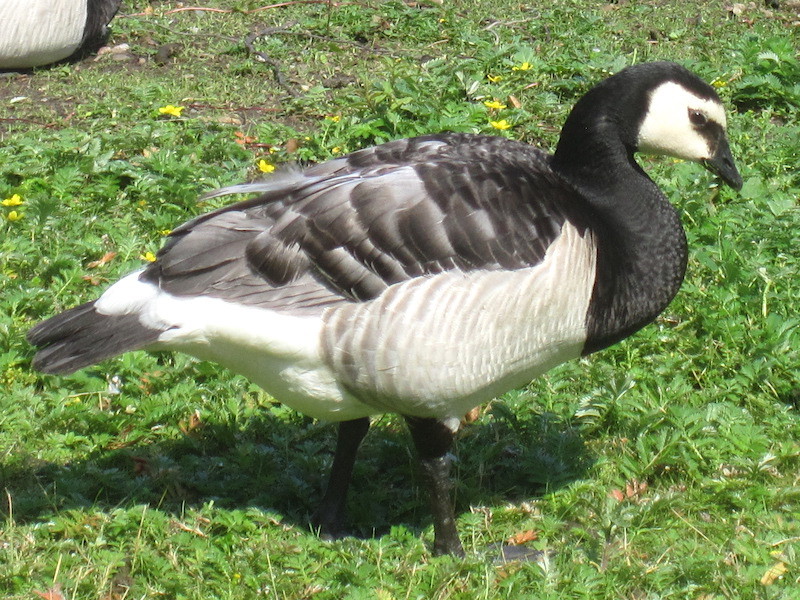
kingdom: Animalia
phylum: Chordata
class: Aves
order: Anseriformes
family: Anatidae
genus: Branta
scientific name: Branta leucopsis
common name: Barnacle goose
